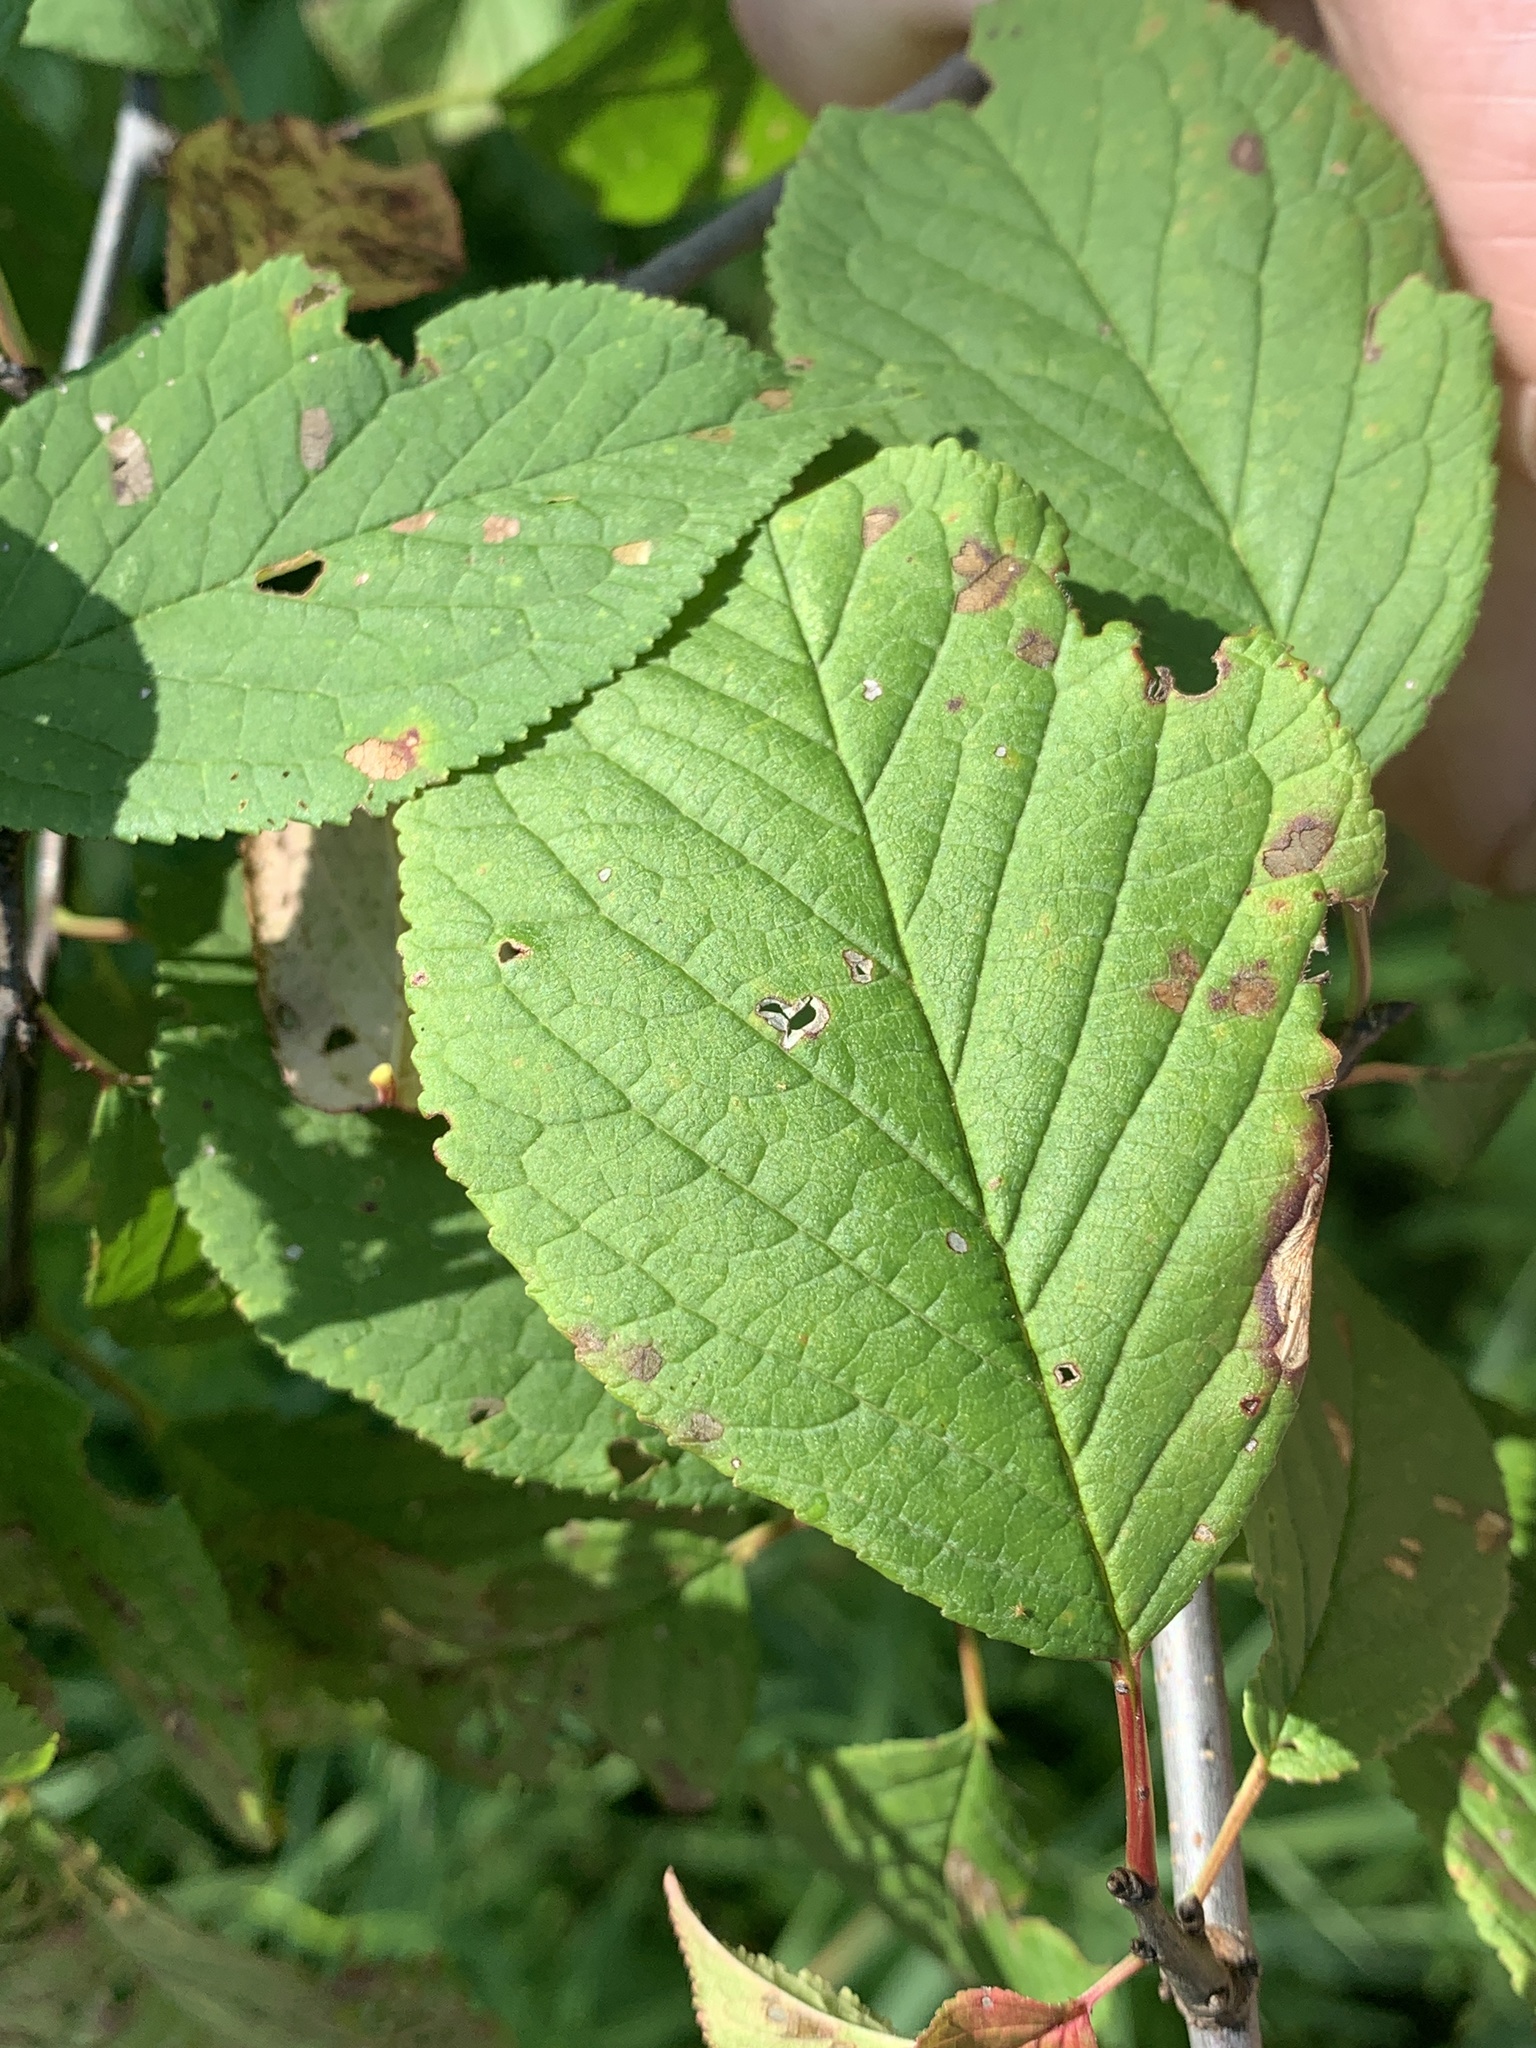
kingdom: Plantae
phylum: Tracheophyta
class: Magnoliopsida
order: Rosales
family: Rosaceae
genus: Prunus
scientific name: Prunus nigra
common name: Black plum
